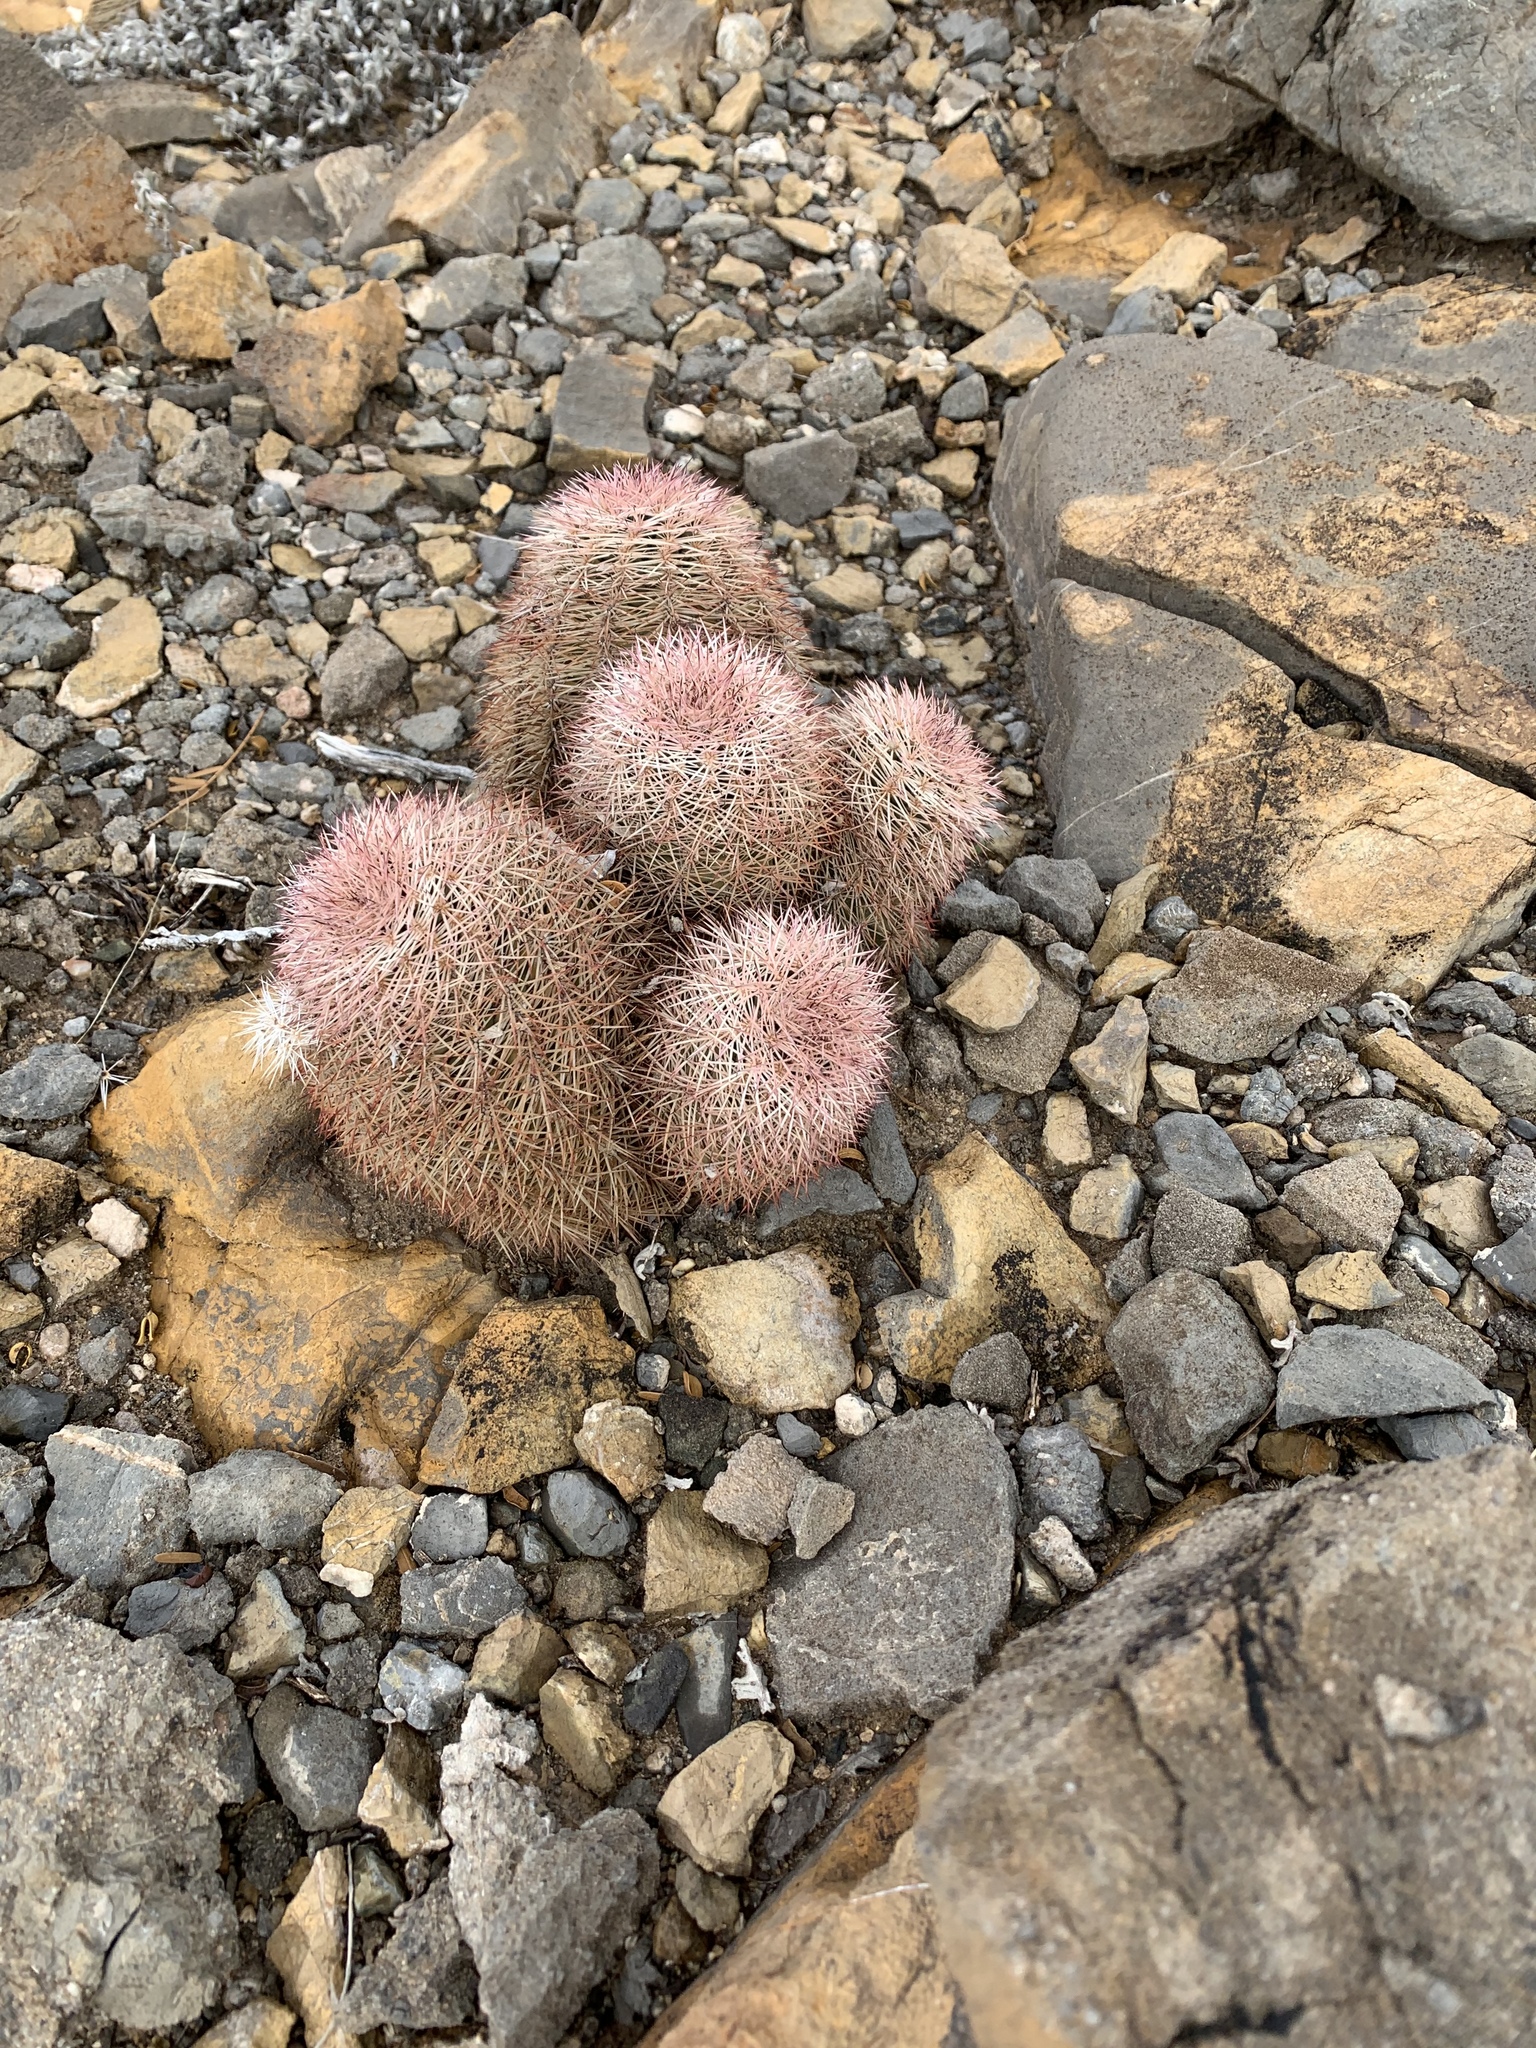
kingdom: Plantae
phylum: Tracheophyta
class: Magnoliopsida
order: Caryophyllales
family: Cactaceae
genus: Echinocereus
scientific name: Echinocereus dasyacanthus
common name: Spiny hedgehog cactus
